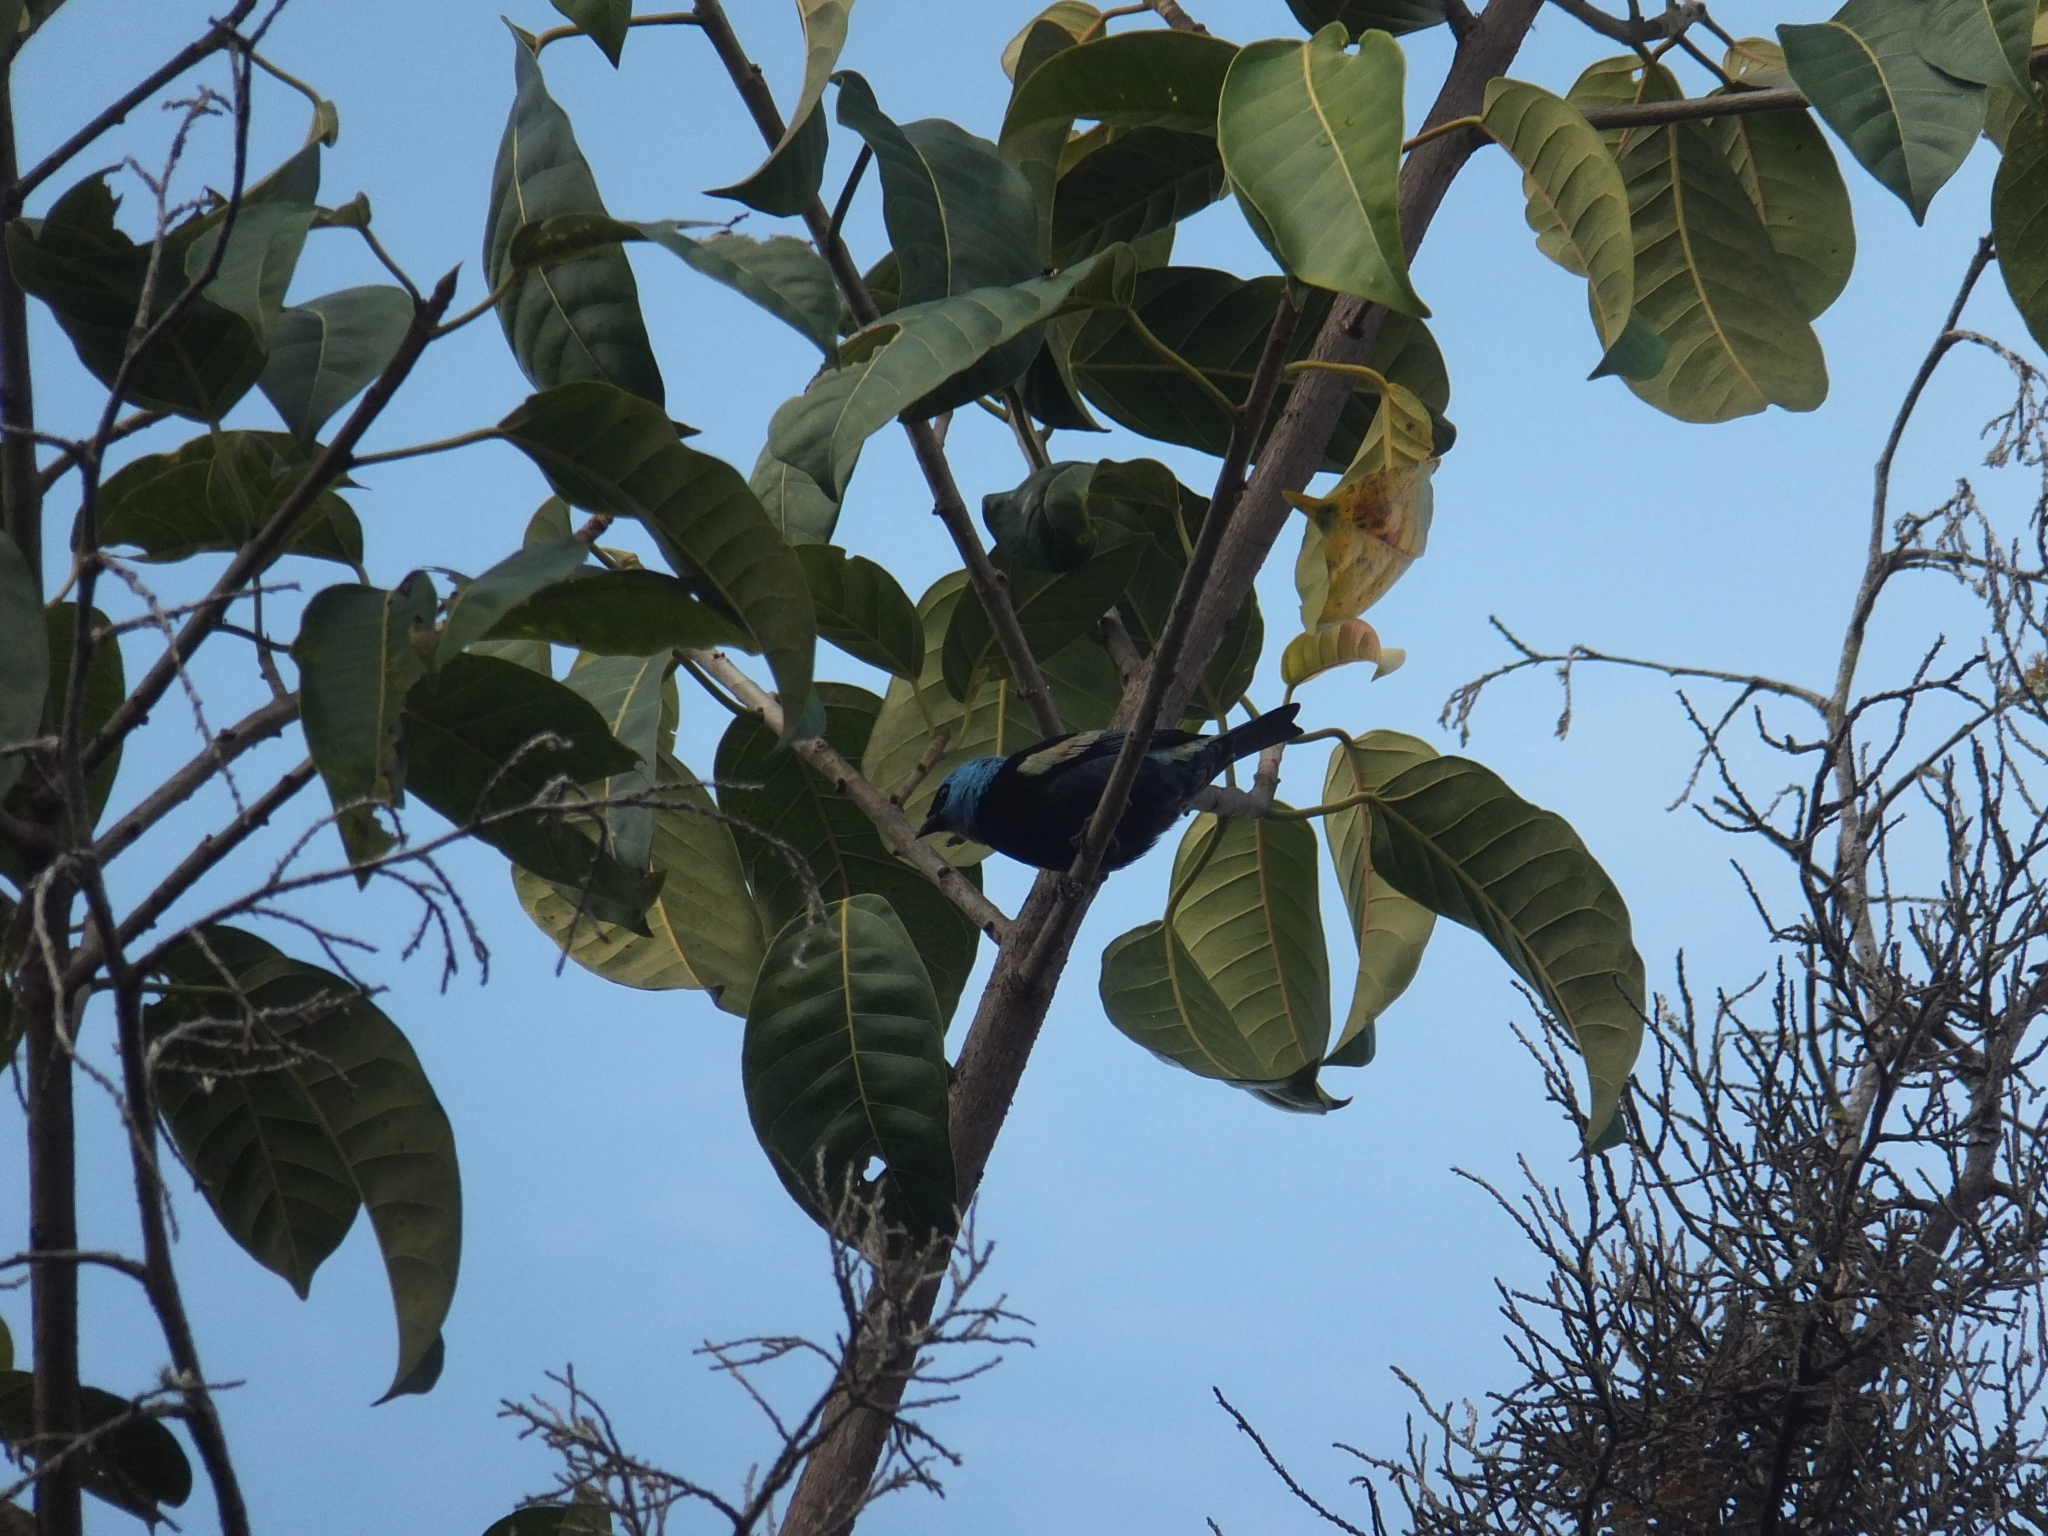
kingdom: Animalia
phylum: Chordata
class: Aves
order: Passeriformes
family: Thraupidae
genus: Stilpnia
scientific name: Stilpnia cyanicollis
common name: Blue-necked tanager
